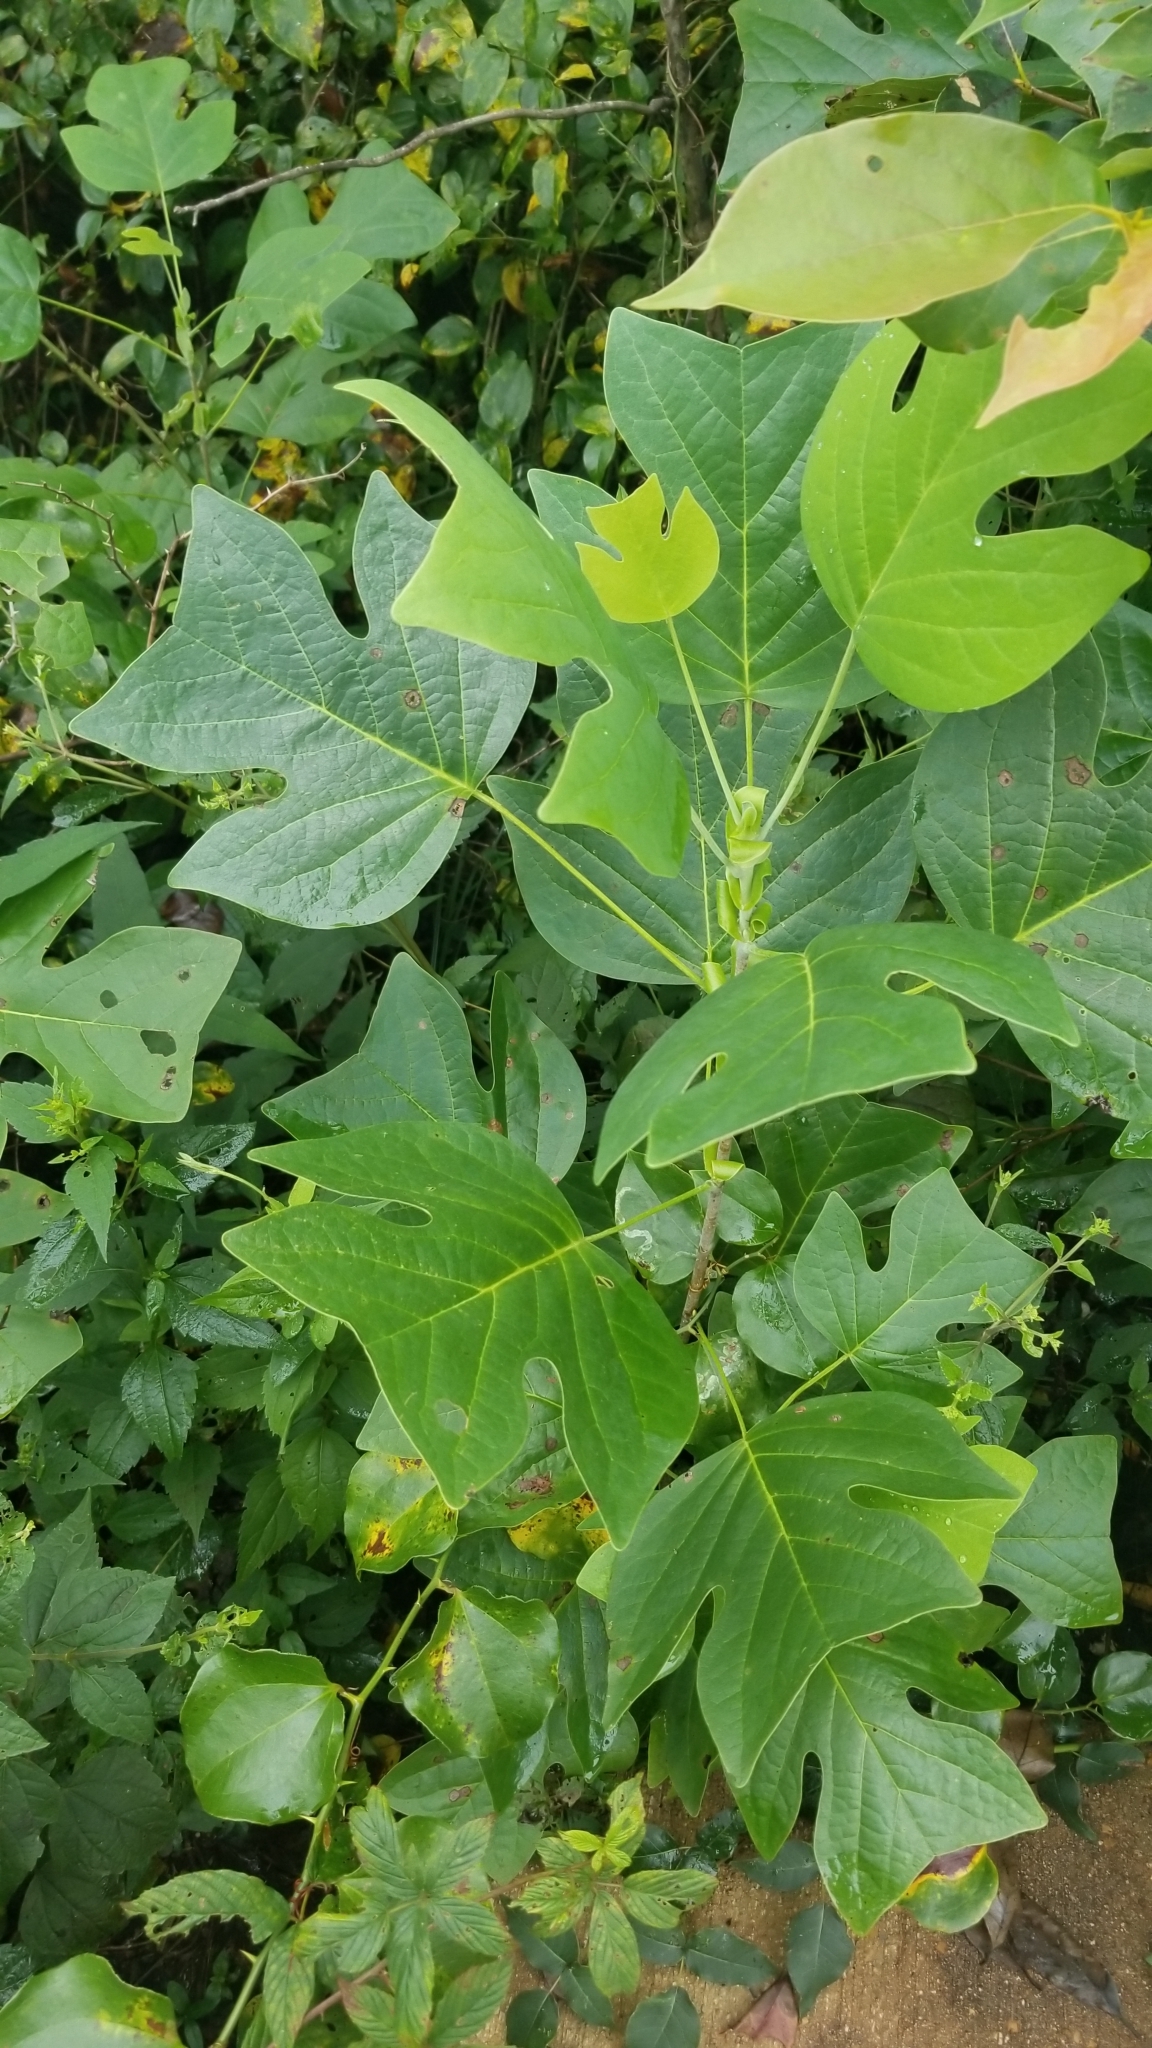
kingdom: Plantae
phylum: Tracheophyta
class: Magnoliopsida
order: Magnoliales
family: Magnoliaceae
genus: Liriodendron
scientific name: Liriodendron tulipifera
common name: Tulip tree
